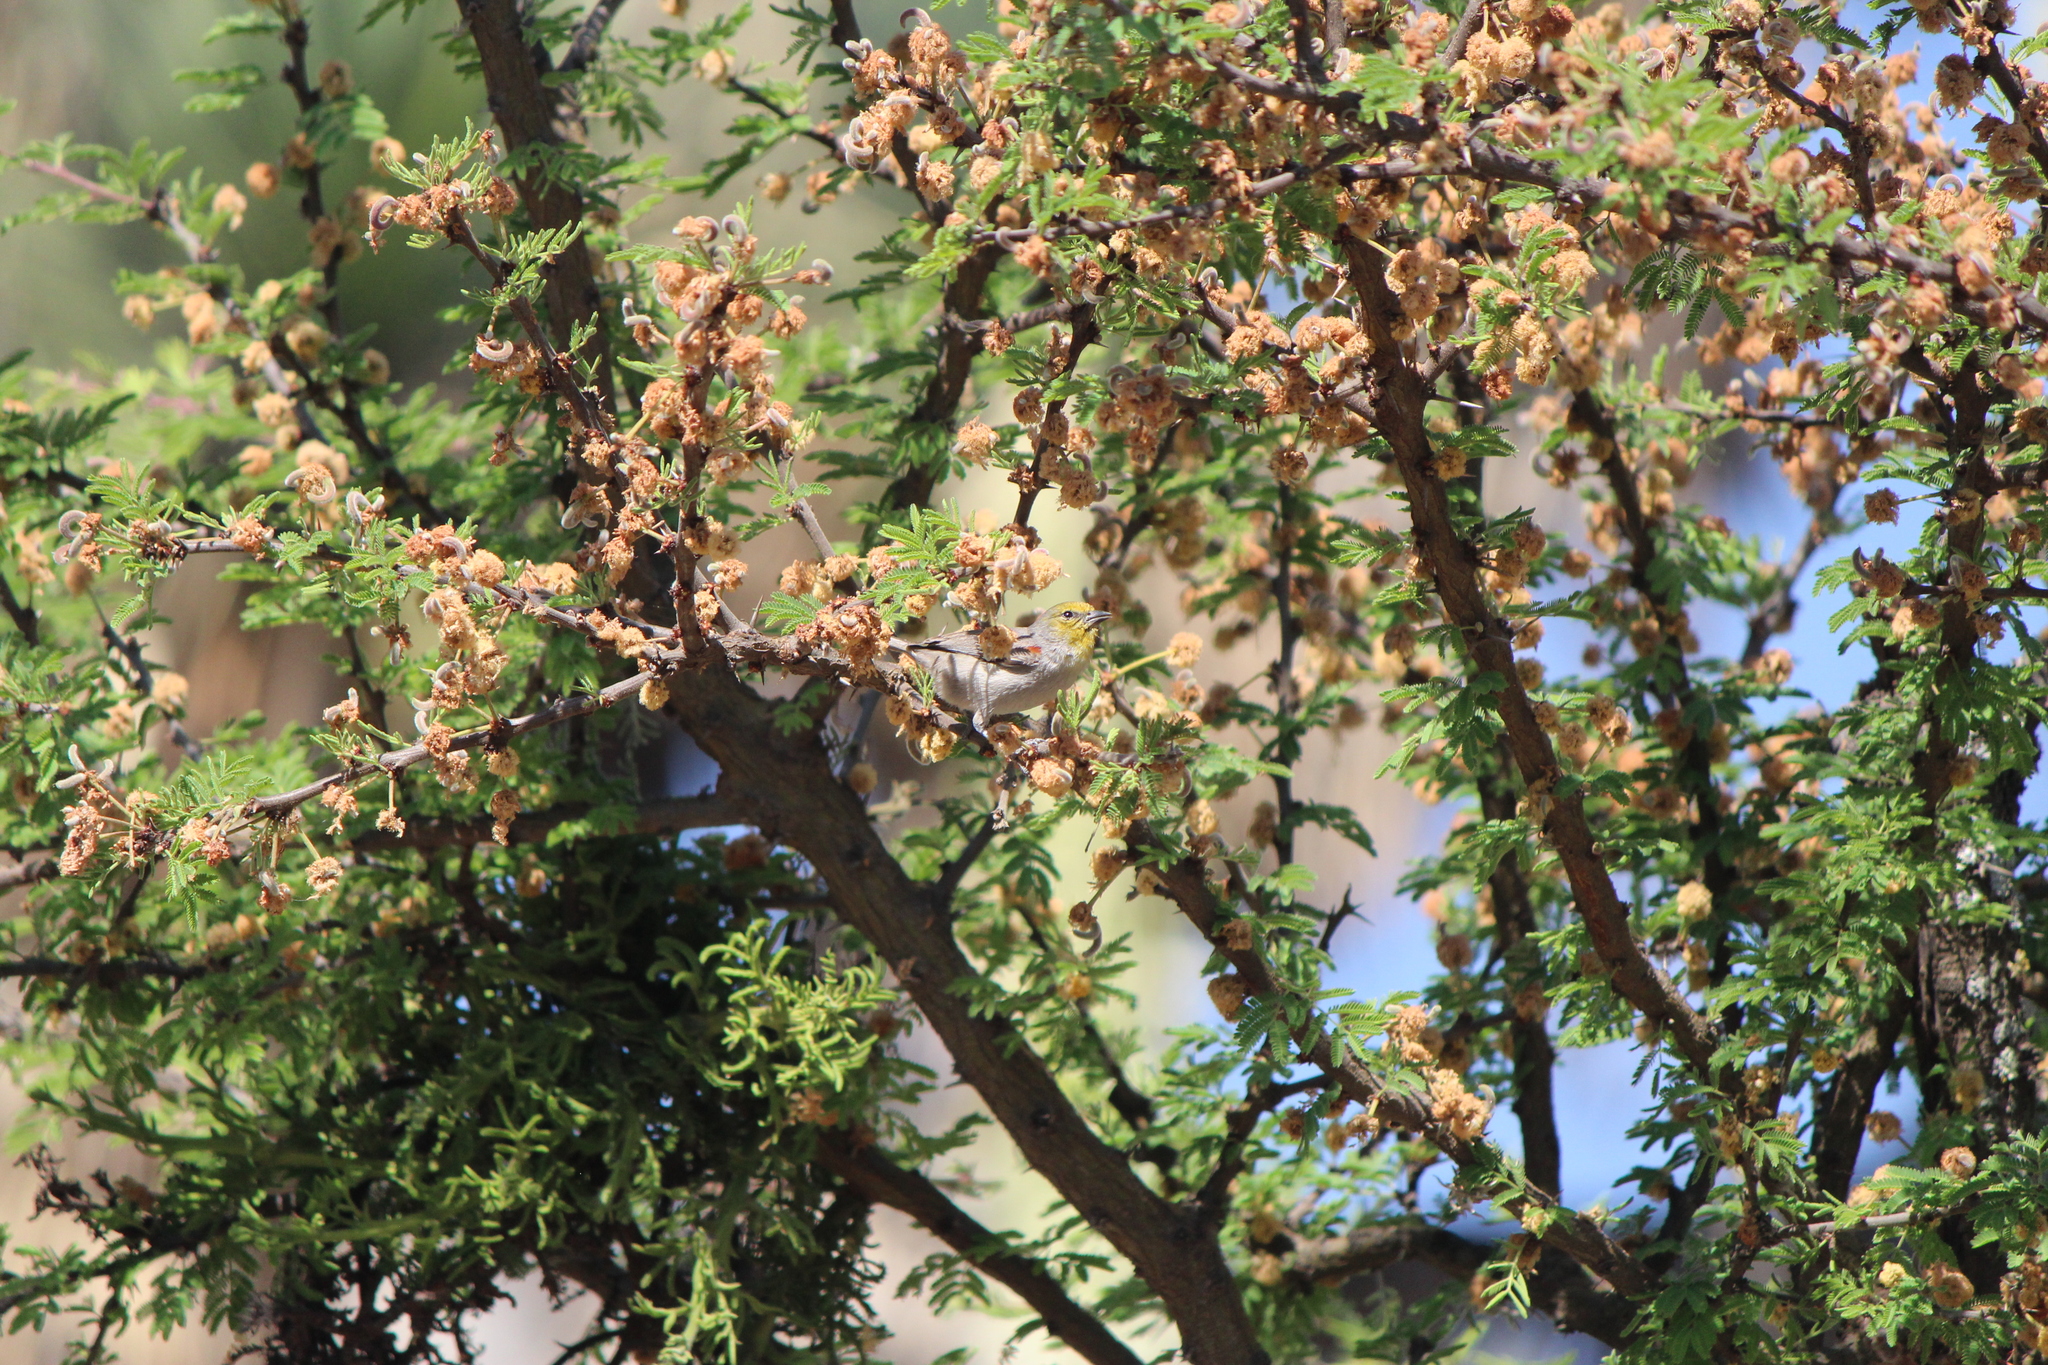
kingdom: Animalia
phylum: Chordata
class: Aves
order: Passeriformes
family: Remizidae
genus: Auriparus
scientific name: Auriparus flaviceps
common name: Verdin
